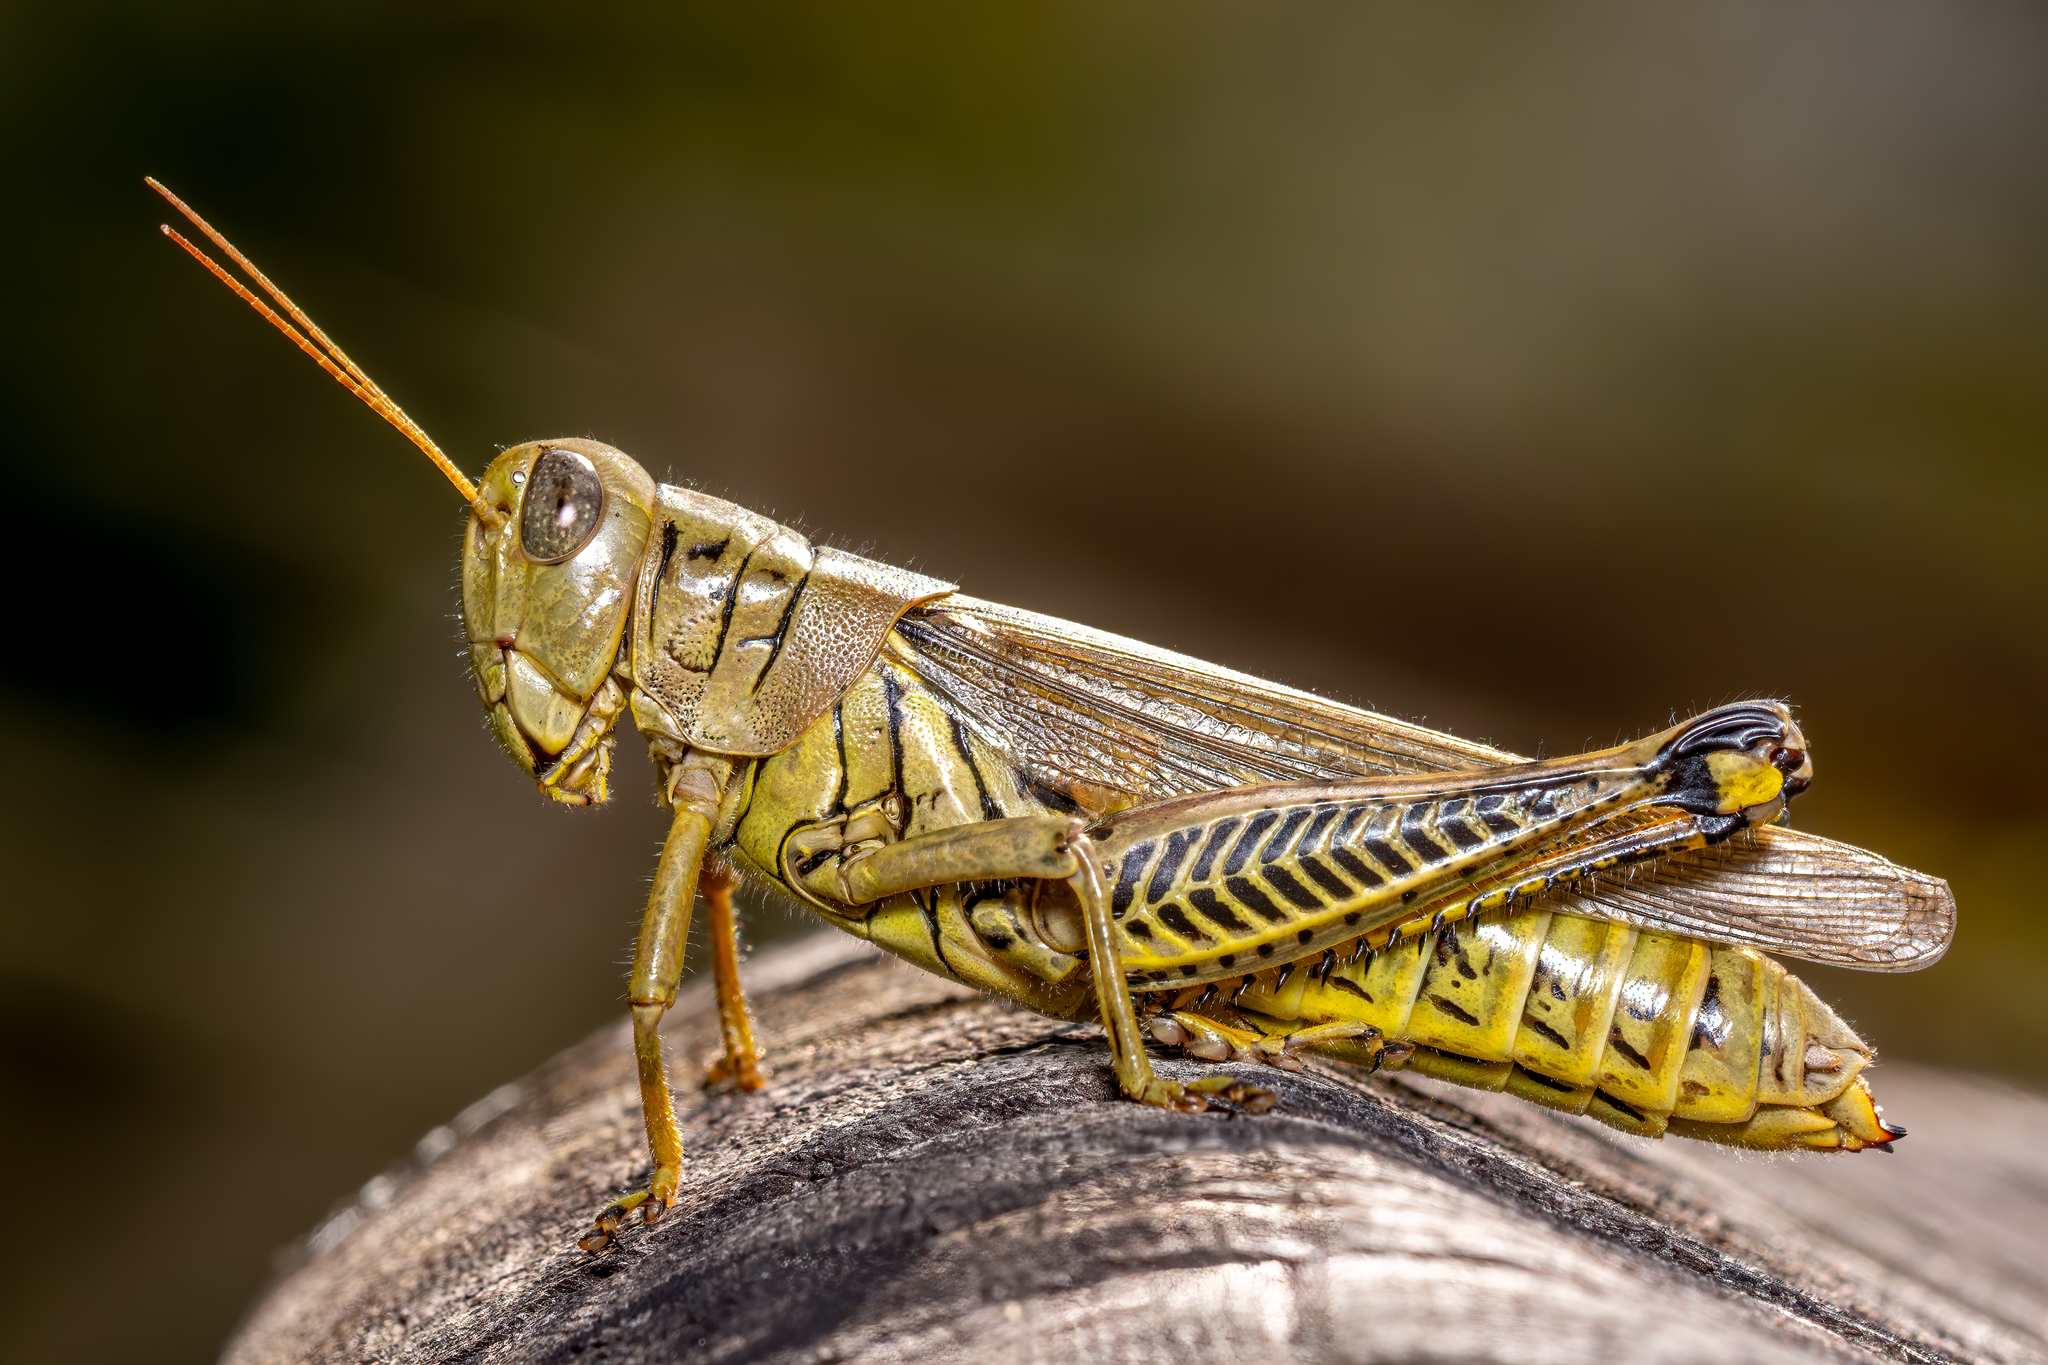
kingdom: Animalia
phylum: Arthropoda
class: Insecta
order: Orthoptera
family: Acrididae
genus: Melanoplus
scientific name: Melanoplus differentialis
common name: Differential grasshopper
